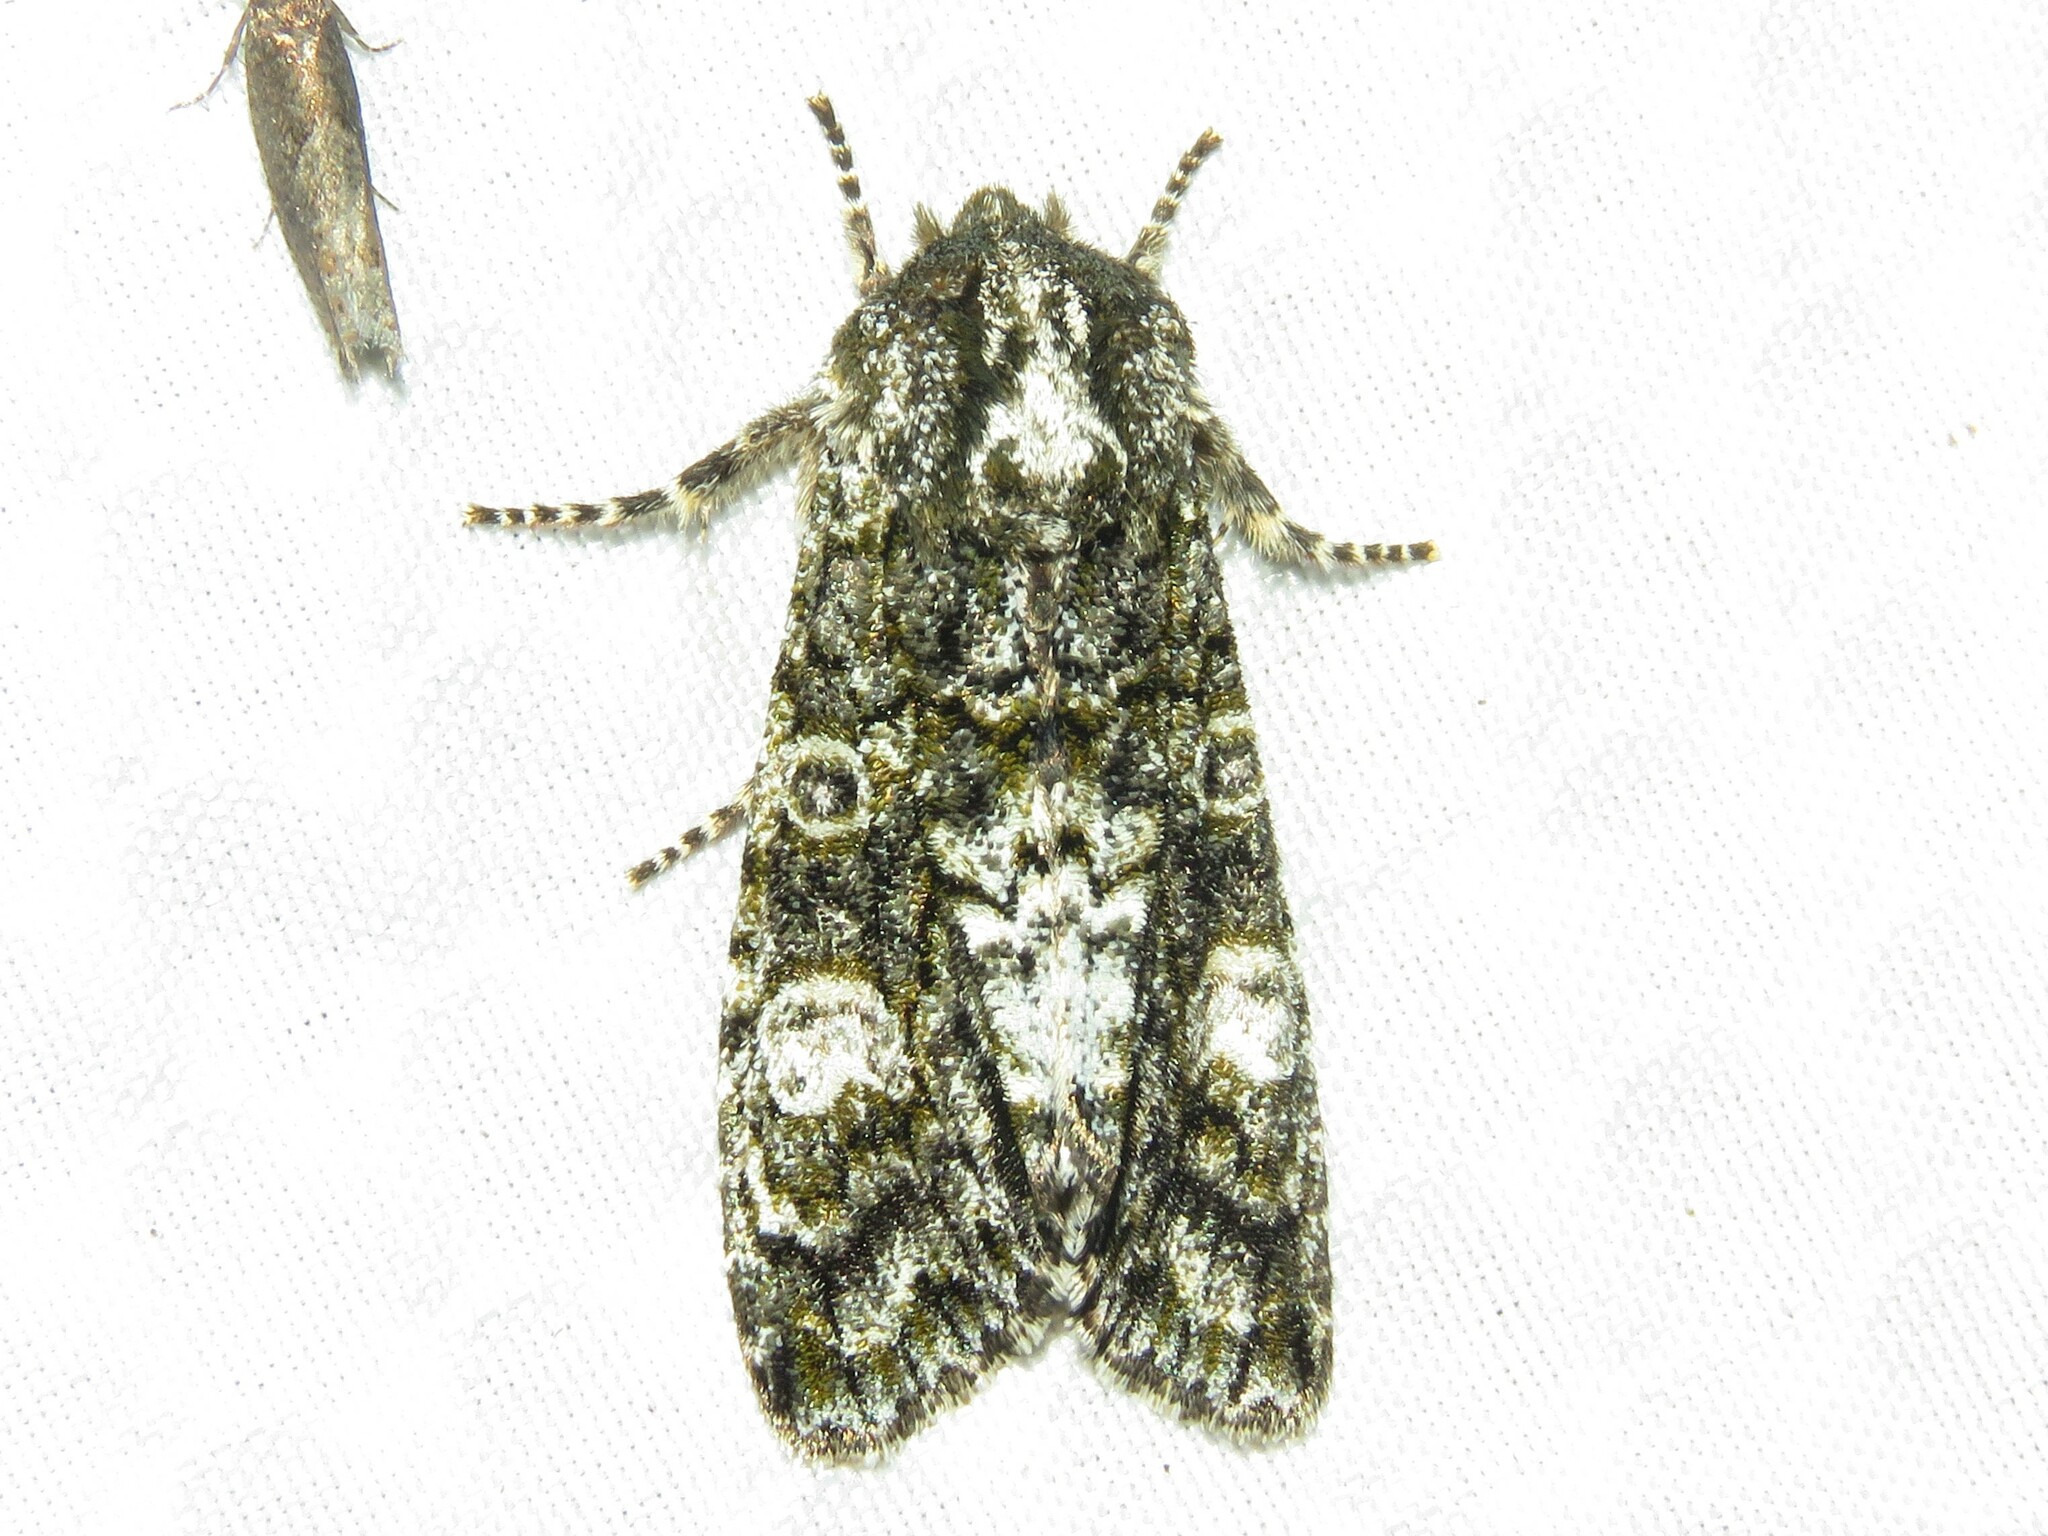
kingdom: Animalia
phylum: Arthropoda
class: Insecta
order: Lepidoptera
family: Noctuidae
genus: Psaphida
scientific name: Psaphida grotei
